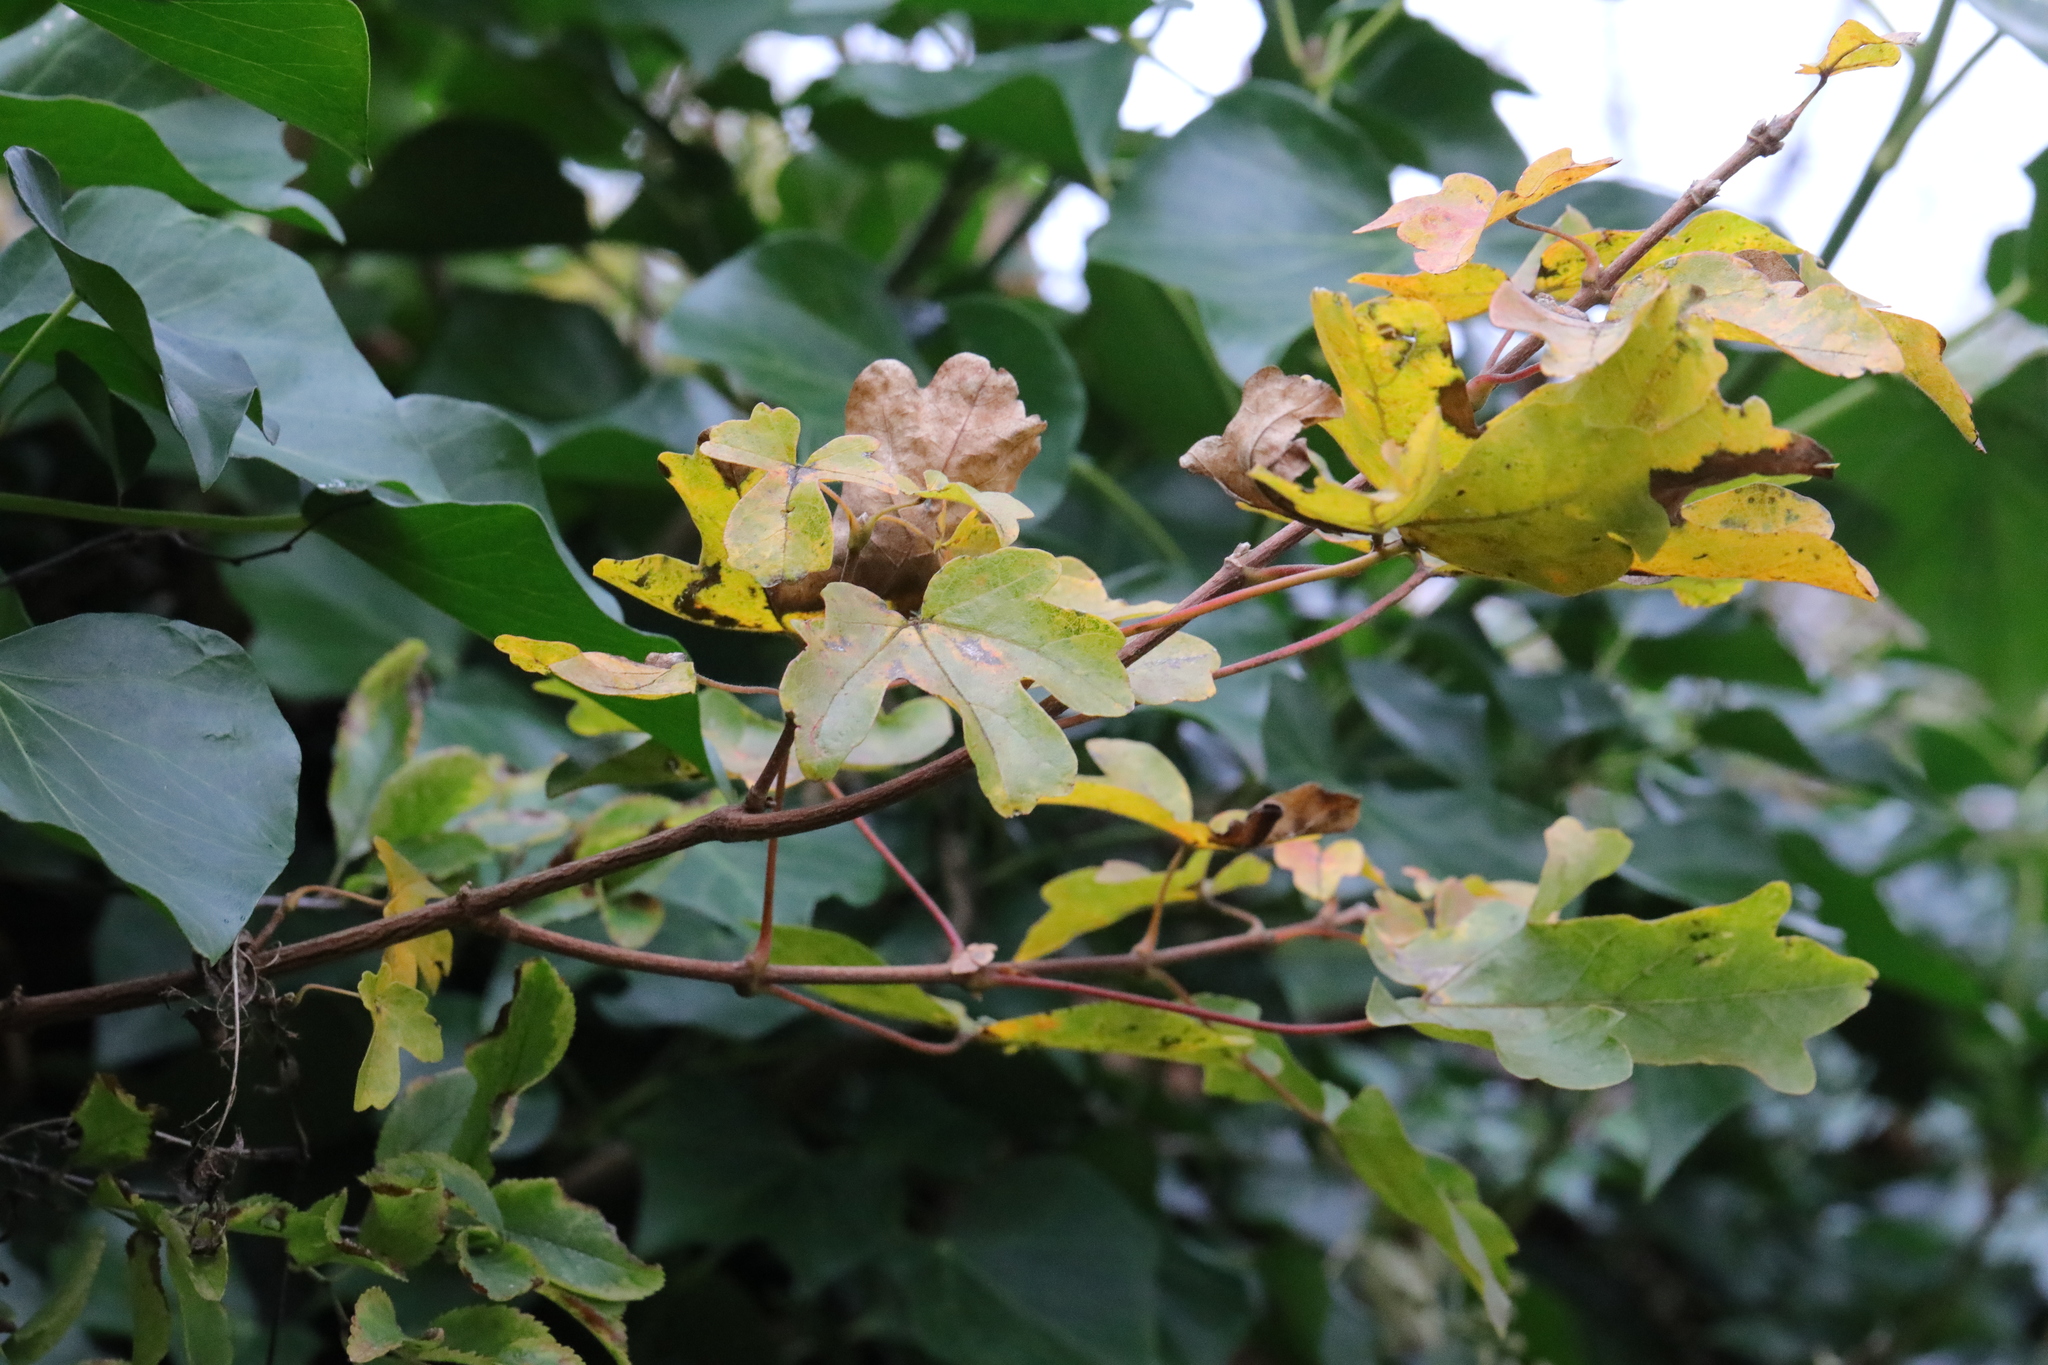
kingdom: Plantae
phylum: Tracheophyta
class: Magnoliopsida
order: Sapindales
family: Sapindaceae
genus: Acer
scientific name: Acer campestre
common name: Field maple
